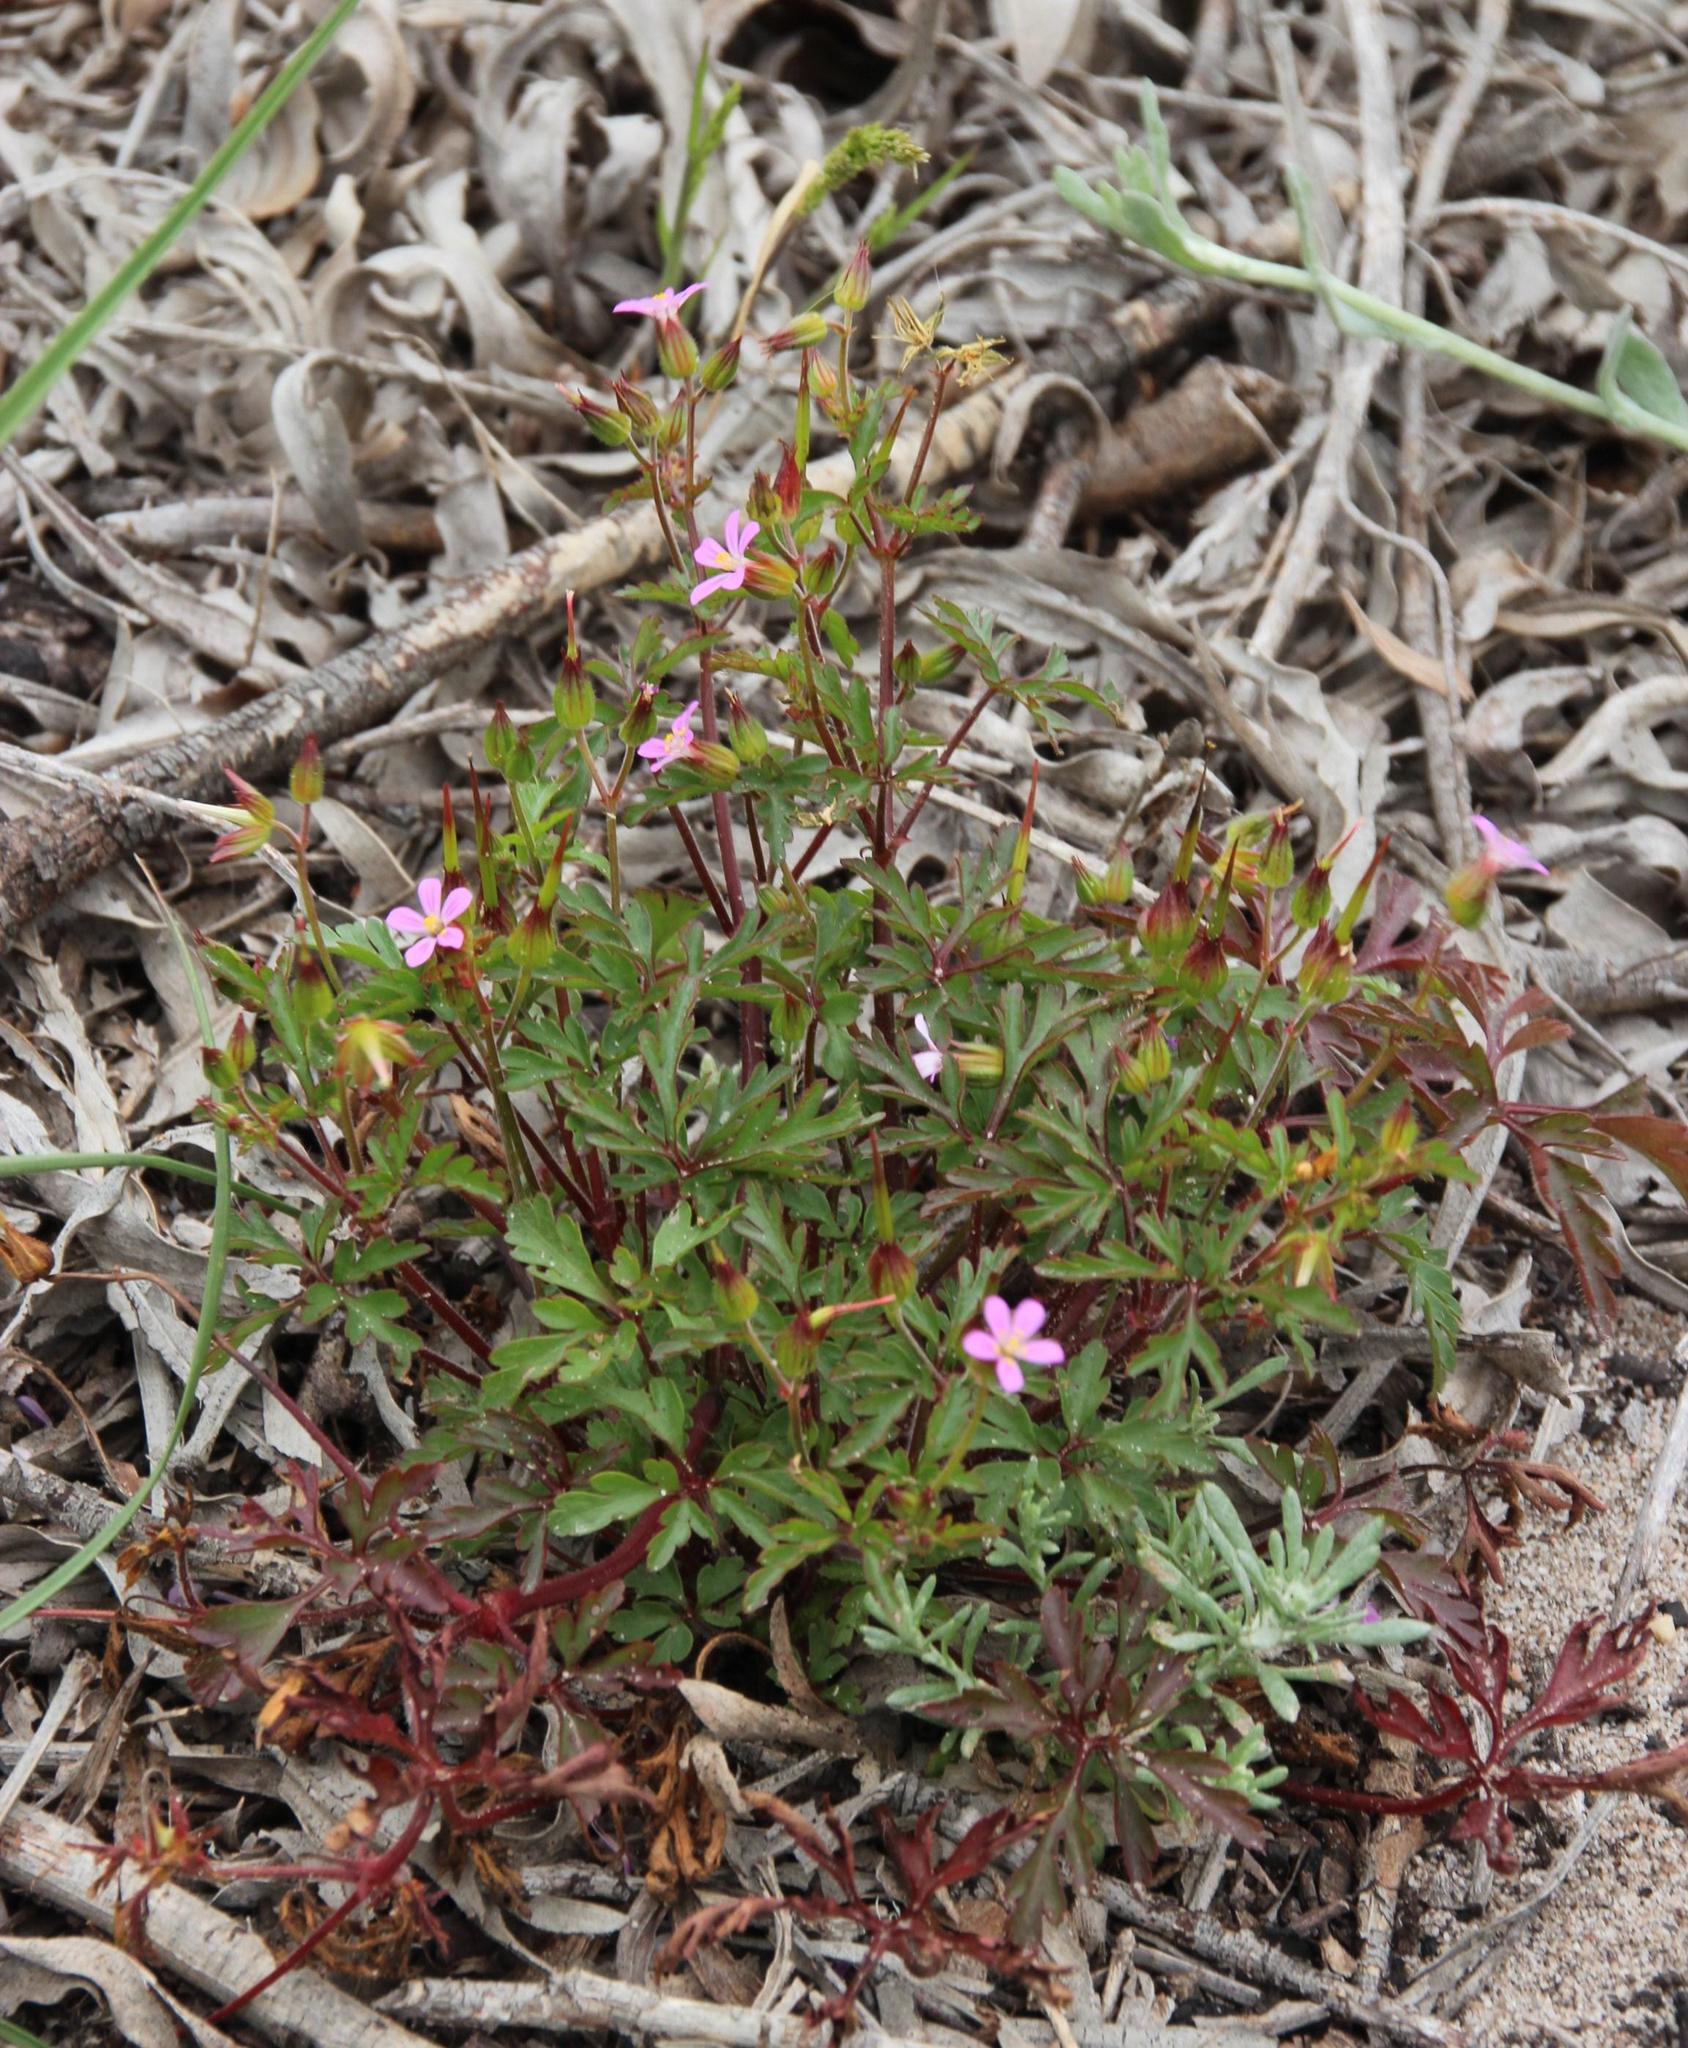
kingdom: Plantae
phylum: Tracheophyta
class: Magnoliopsida
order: Geraniales
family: Geraniaceae
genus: Geranium
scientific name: Geranium purpureum
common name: Little-robin
